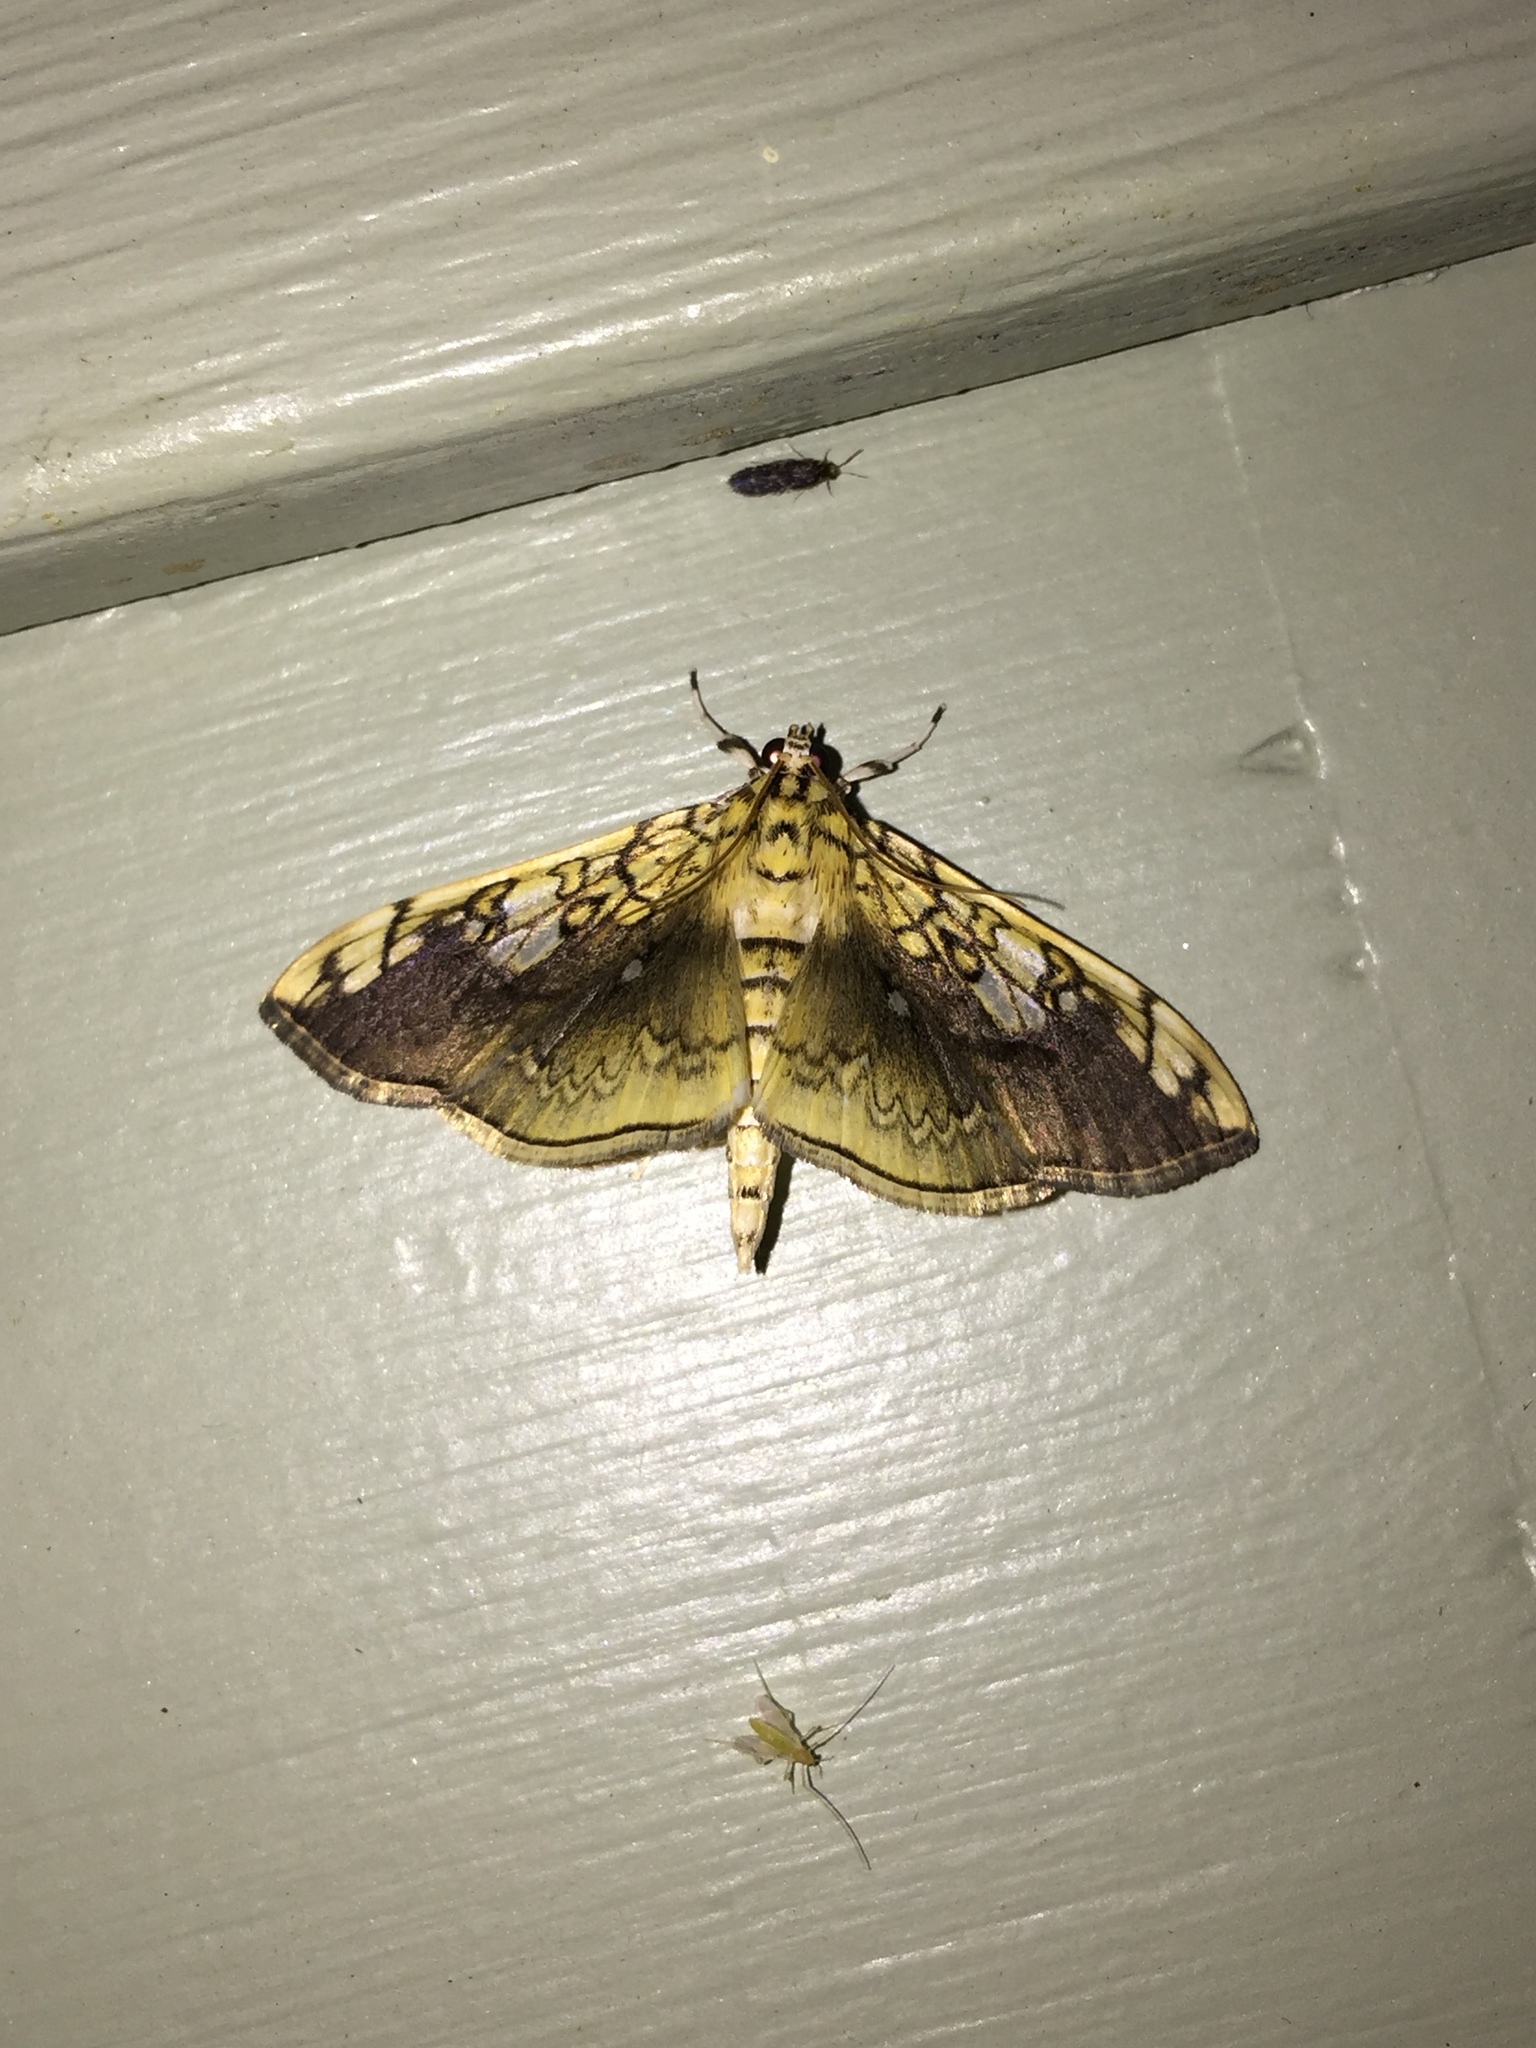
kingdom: Animalia
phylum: Arthropoda
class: Insecta
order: Lepidoptera
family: Crambidae
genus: Pantographa
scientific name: Pantographa limata
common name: Basswood leafroller moth
